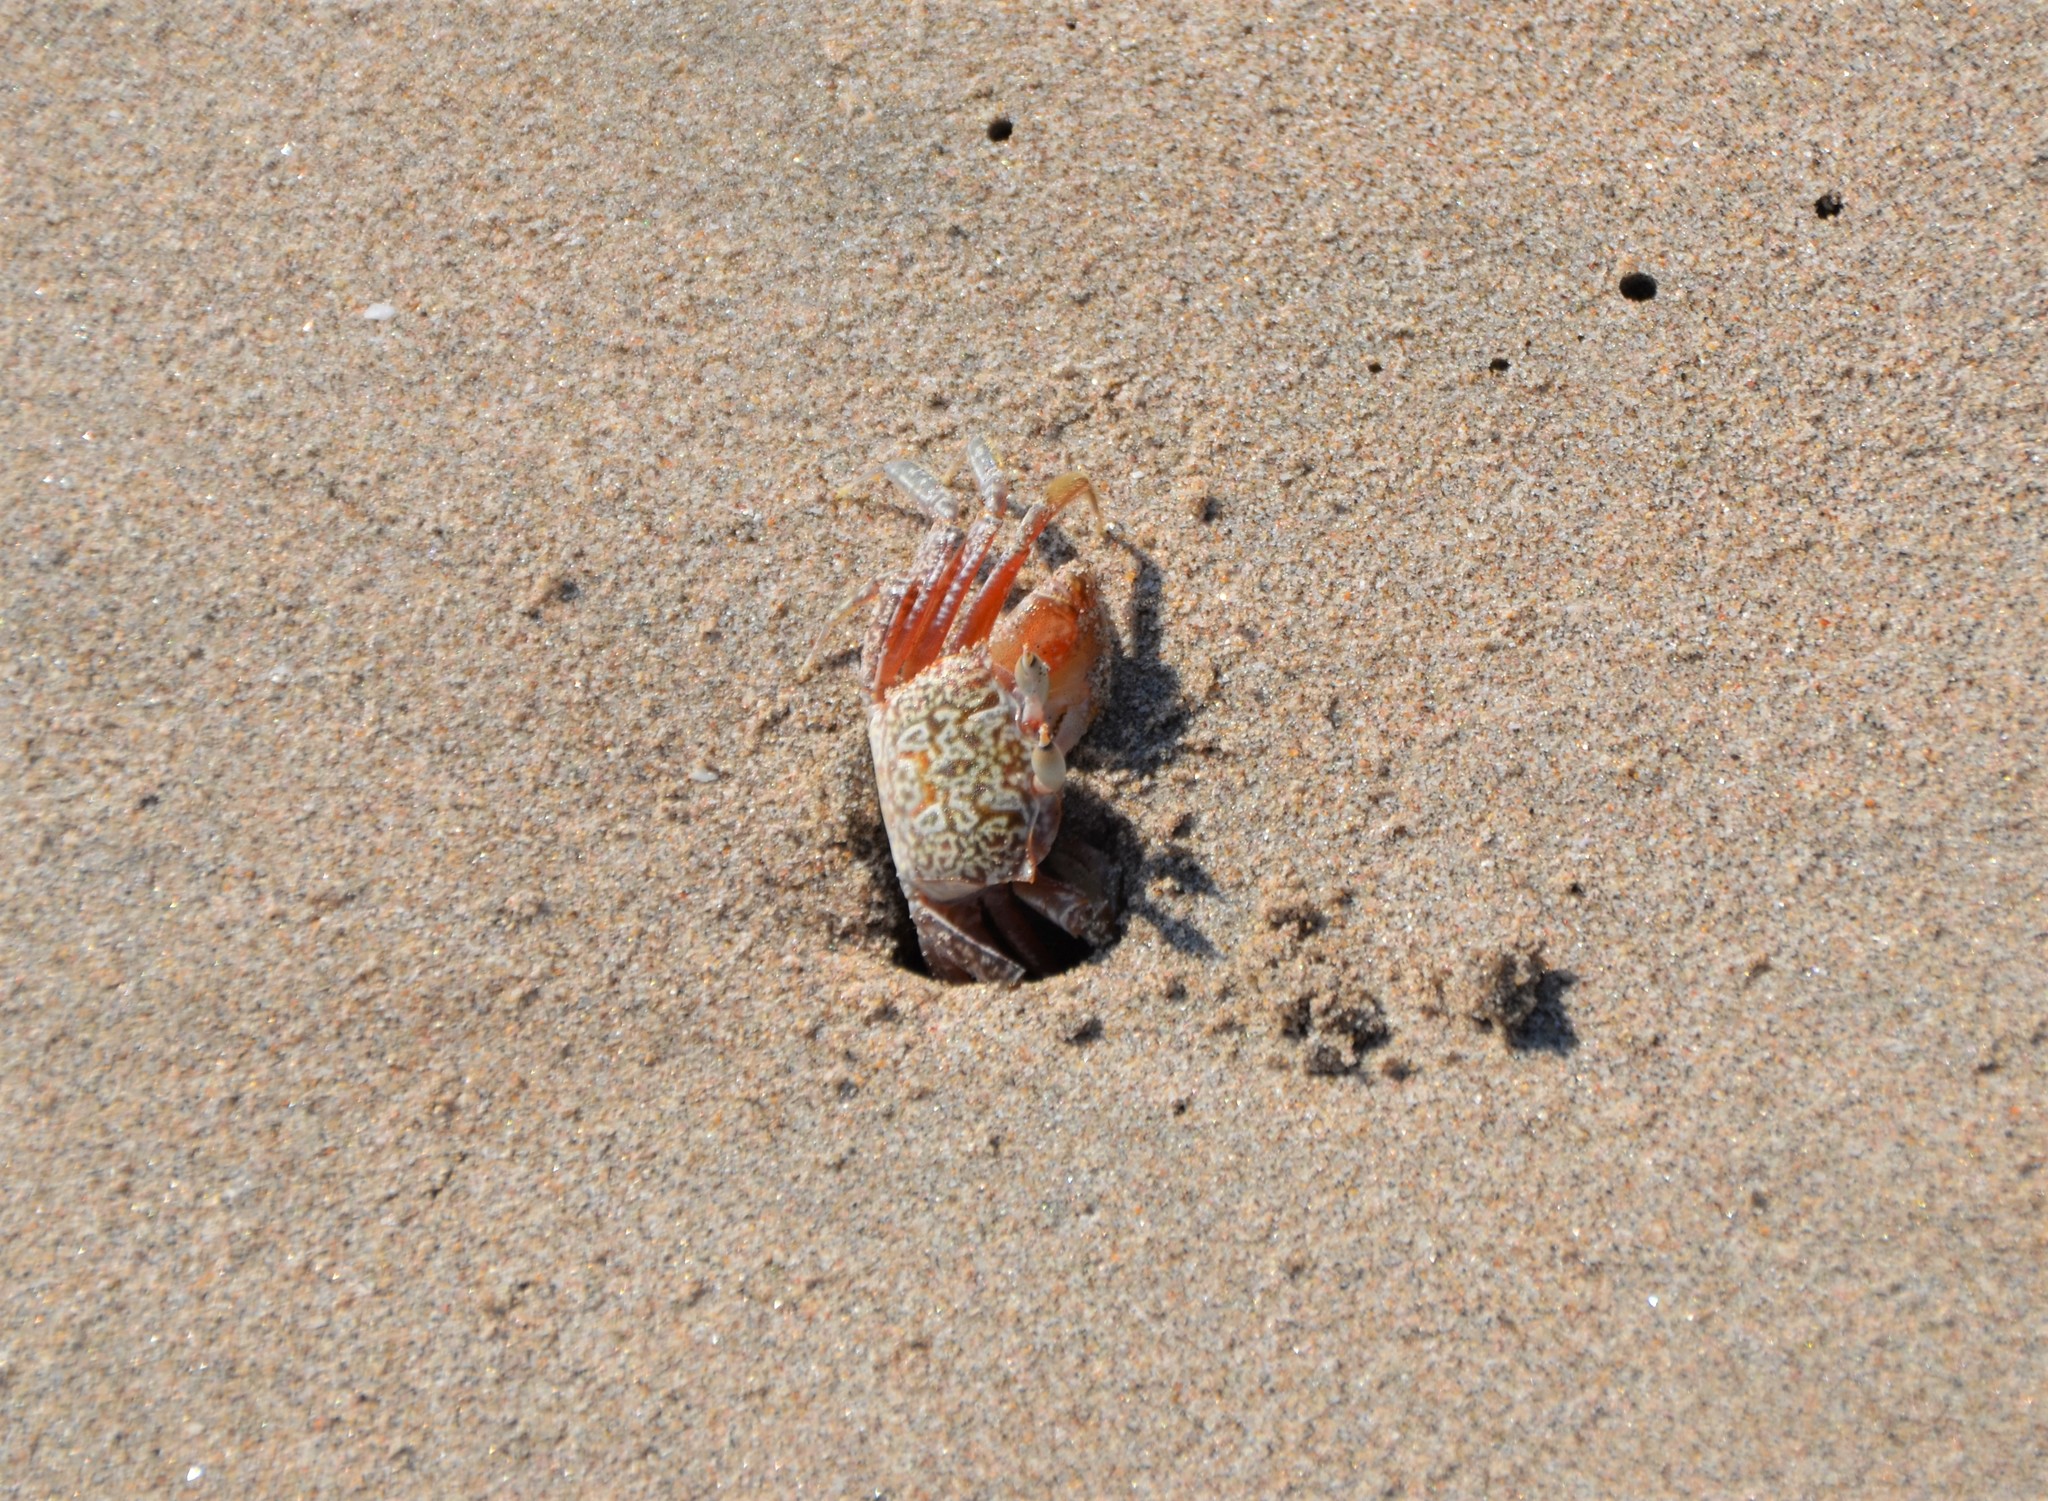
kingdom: Animalia
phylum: Arthropoda
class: Malacostraca
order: Decapoda
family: Ocypodidae
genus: Ocypode
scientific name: Ocypode gaudichaudii
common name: Pacific ghost crab
